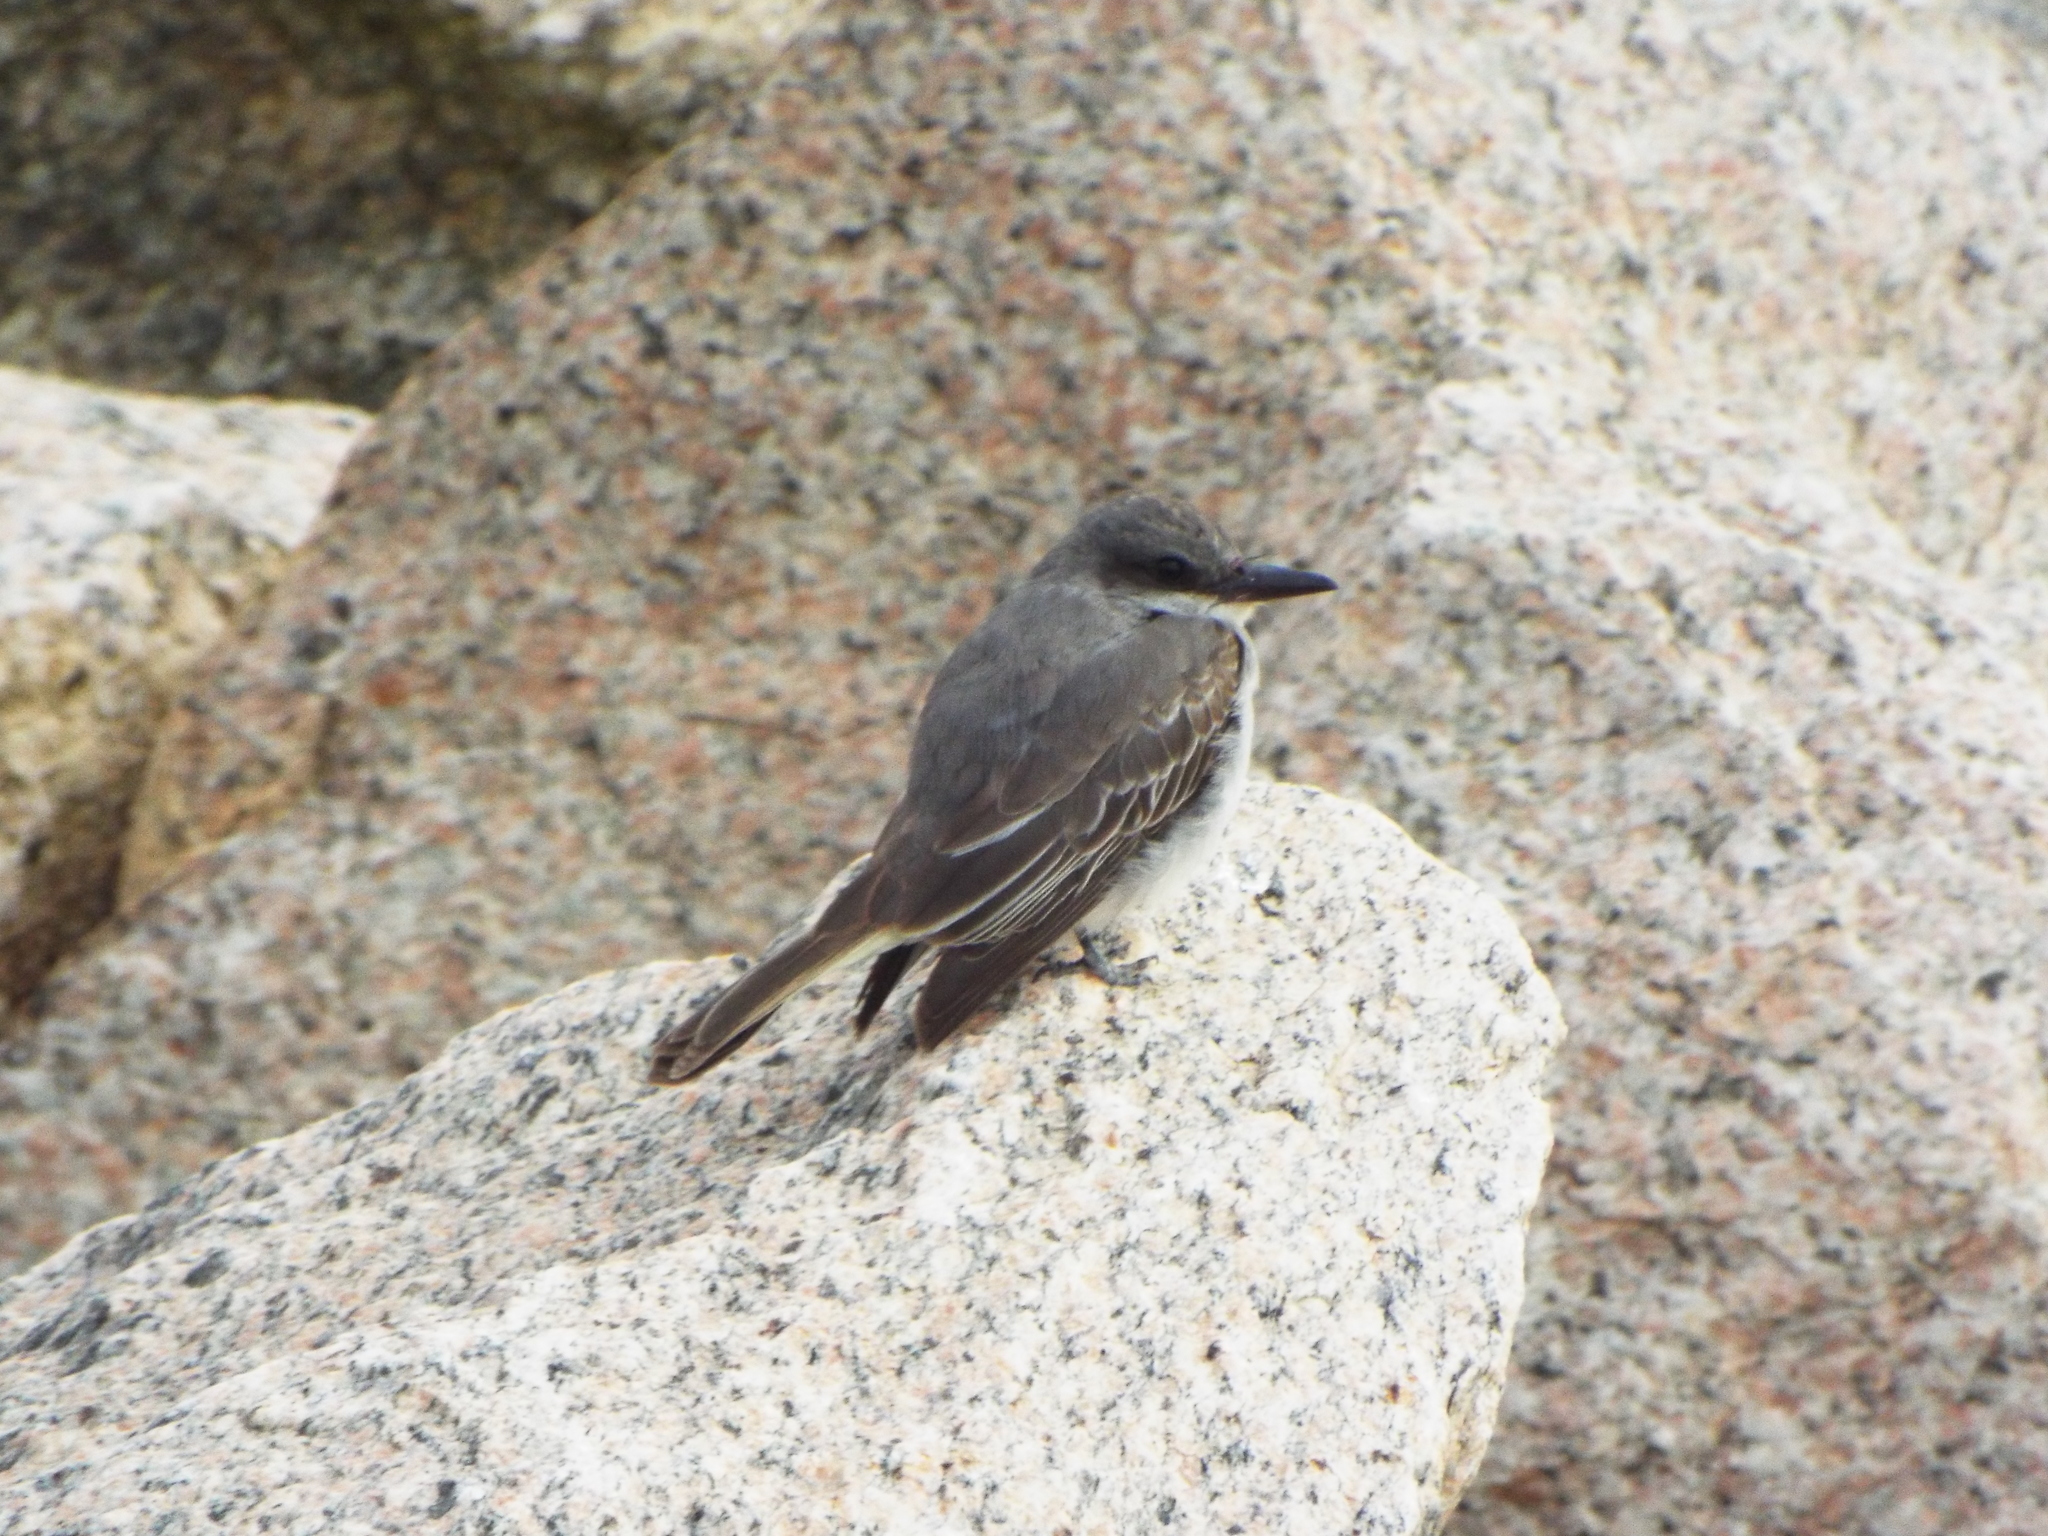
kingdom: Animalia
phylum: Chordata
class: Aves
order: Passeriformes
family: Tyrannidae
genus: Tyrannus
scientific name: Tyrannus dominicensis
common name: Gray kingbird
